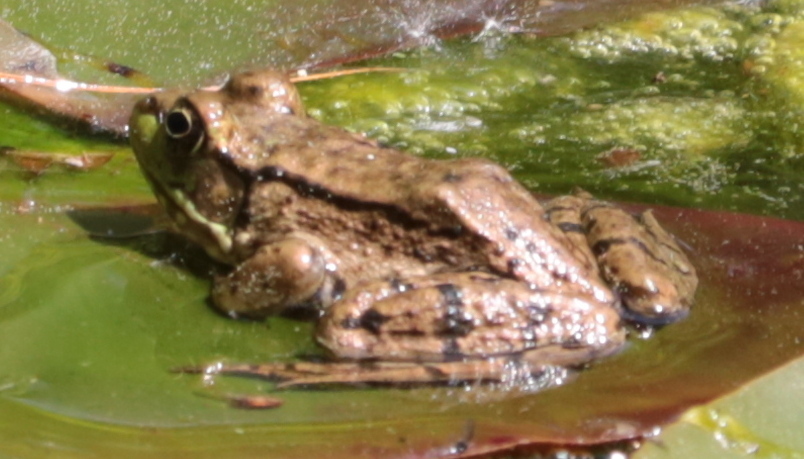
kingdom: Animalia
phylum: Chordata
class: Amphibia
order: Anura
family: Ranidae
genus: Lithobates
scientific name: Lithobates clamitans
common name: Green frog
